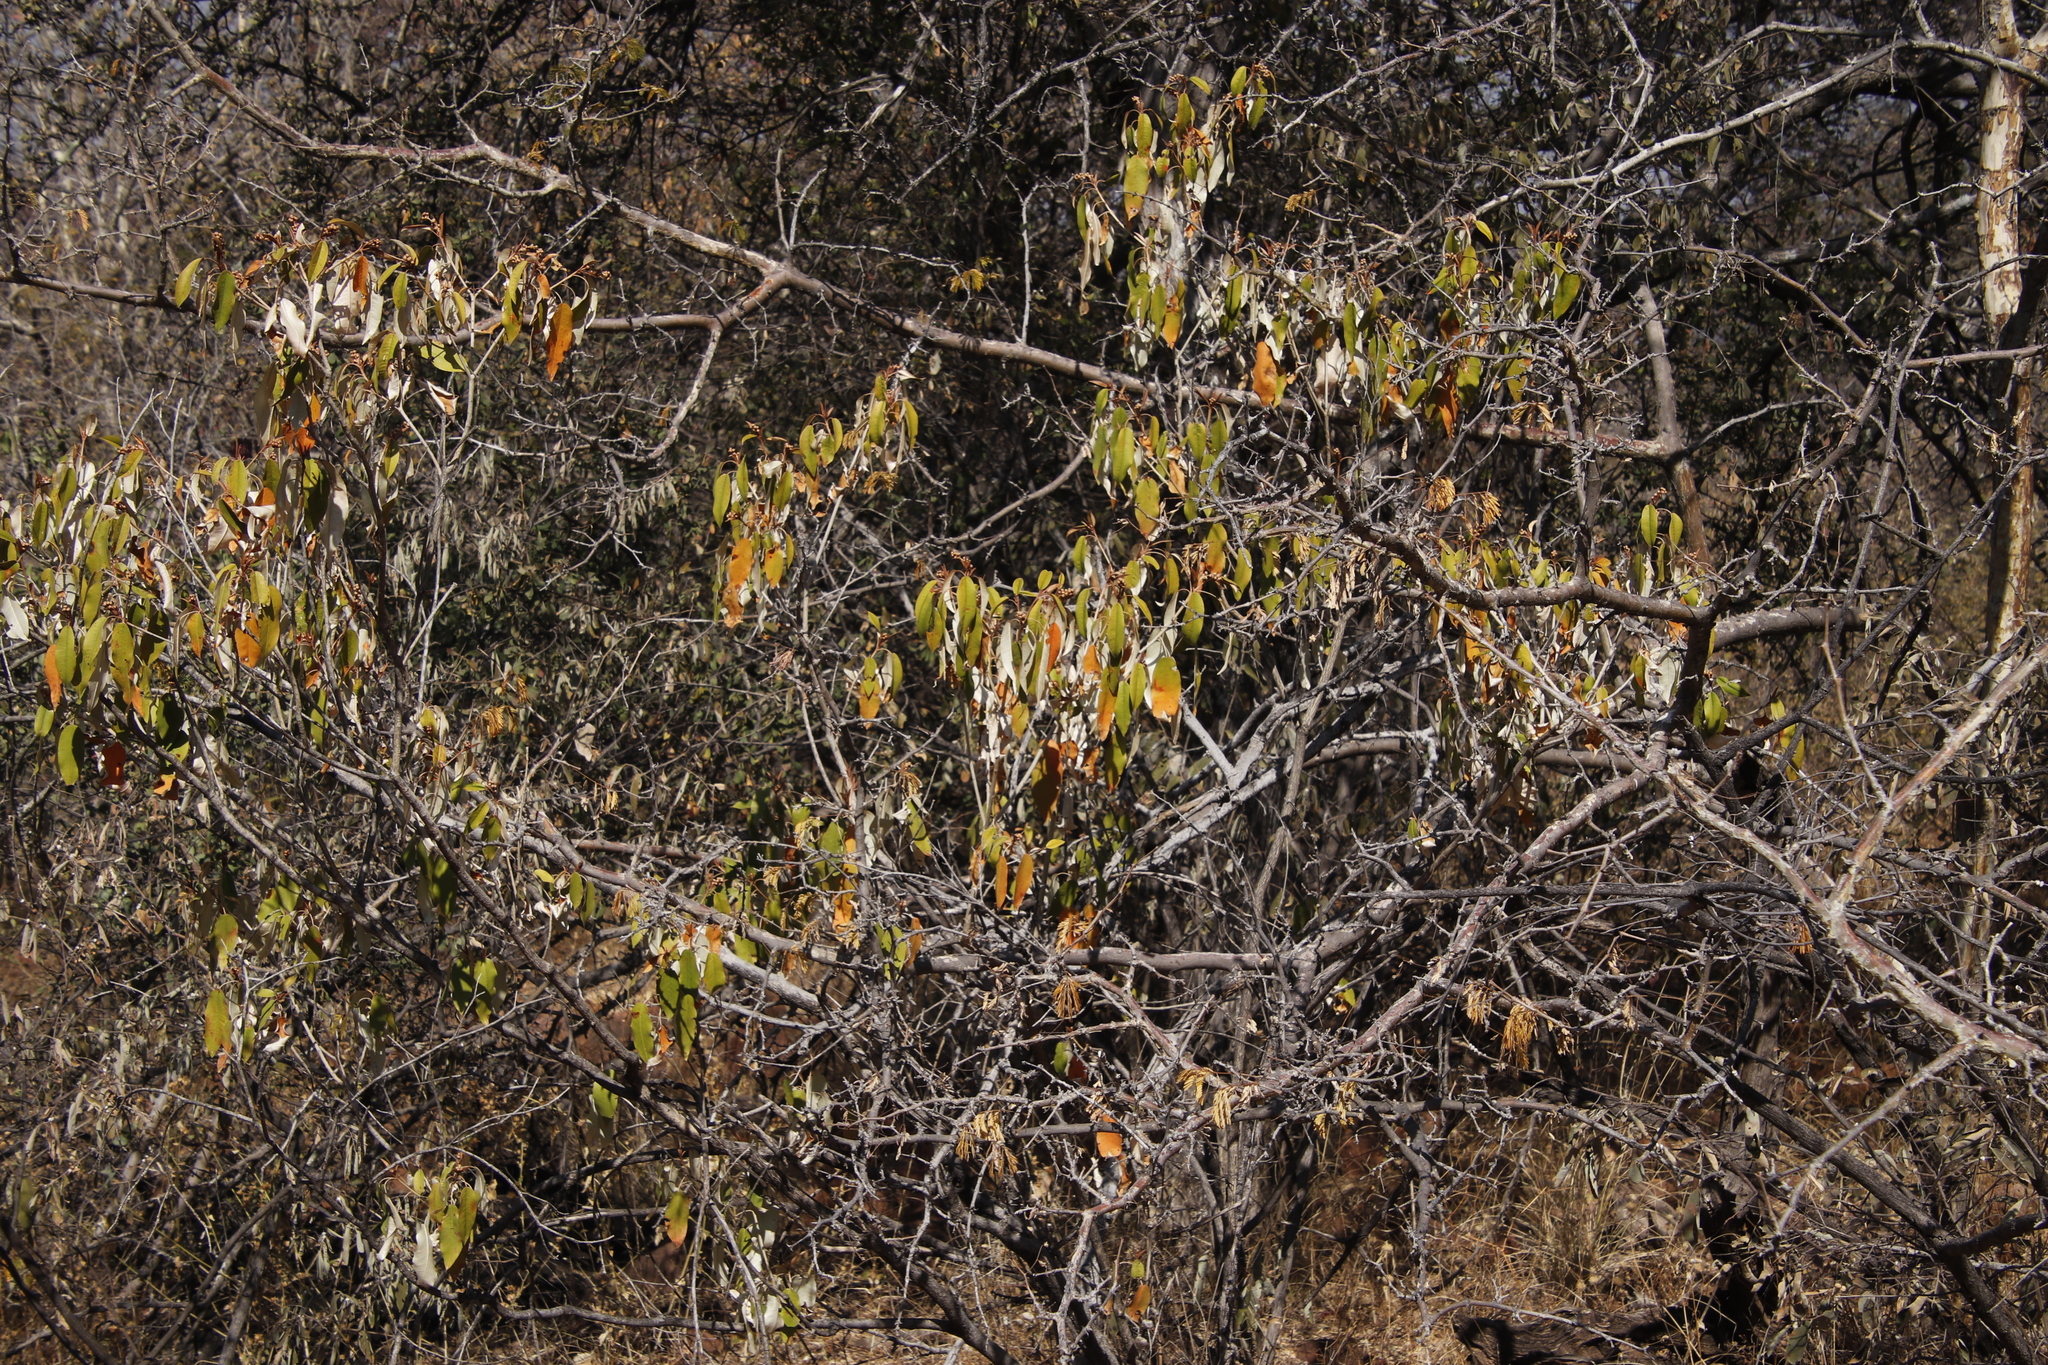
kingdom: Plantae
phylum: Tracheophyta
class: Magnoliopsida
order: Malpighiales
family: Euphorbiaceae
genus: Croton
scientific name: Croton gratissimus
